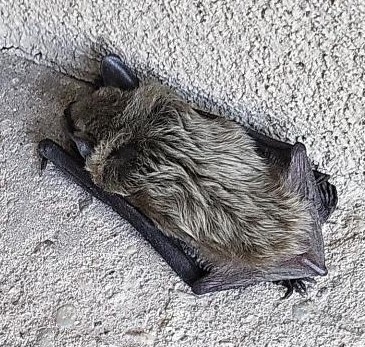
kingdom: Animalia
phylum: Chordata
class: Mammalia
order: Chiroptera
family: Vespertilionidae
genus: Eptesicus
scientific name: Eptesicus fuscus
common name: Big brown bat
